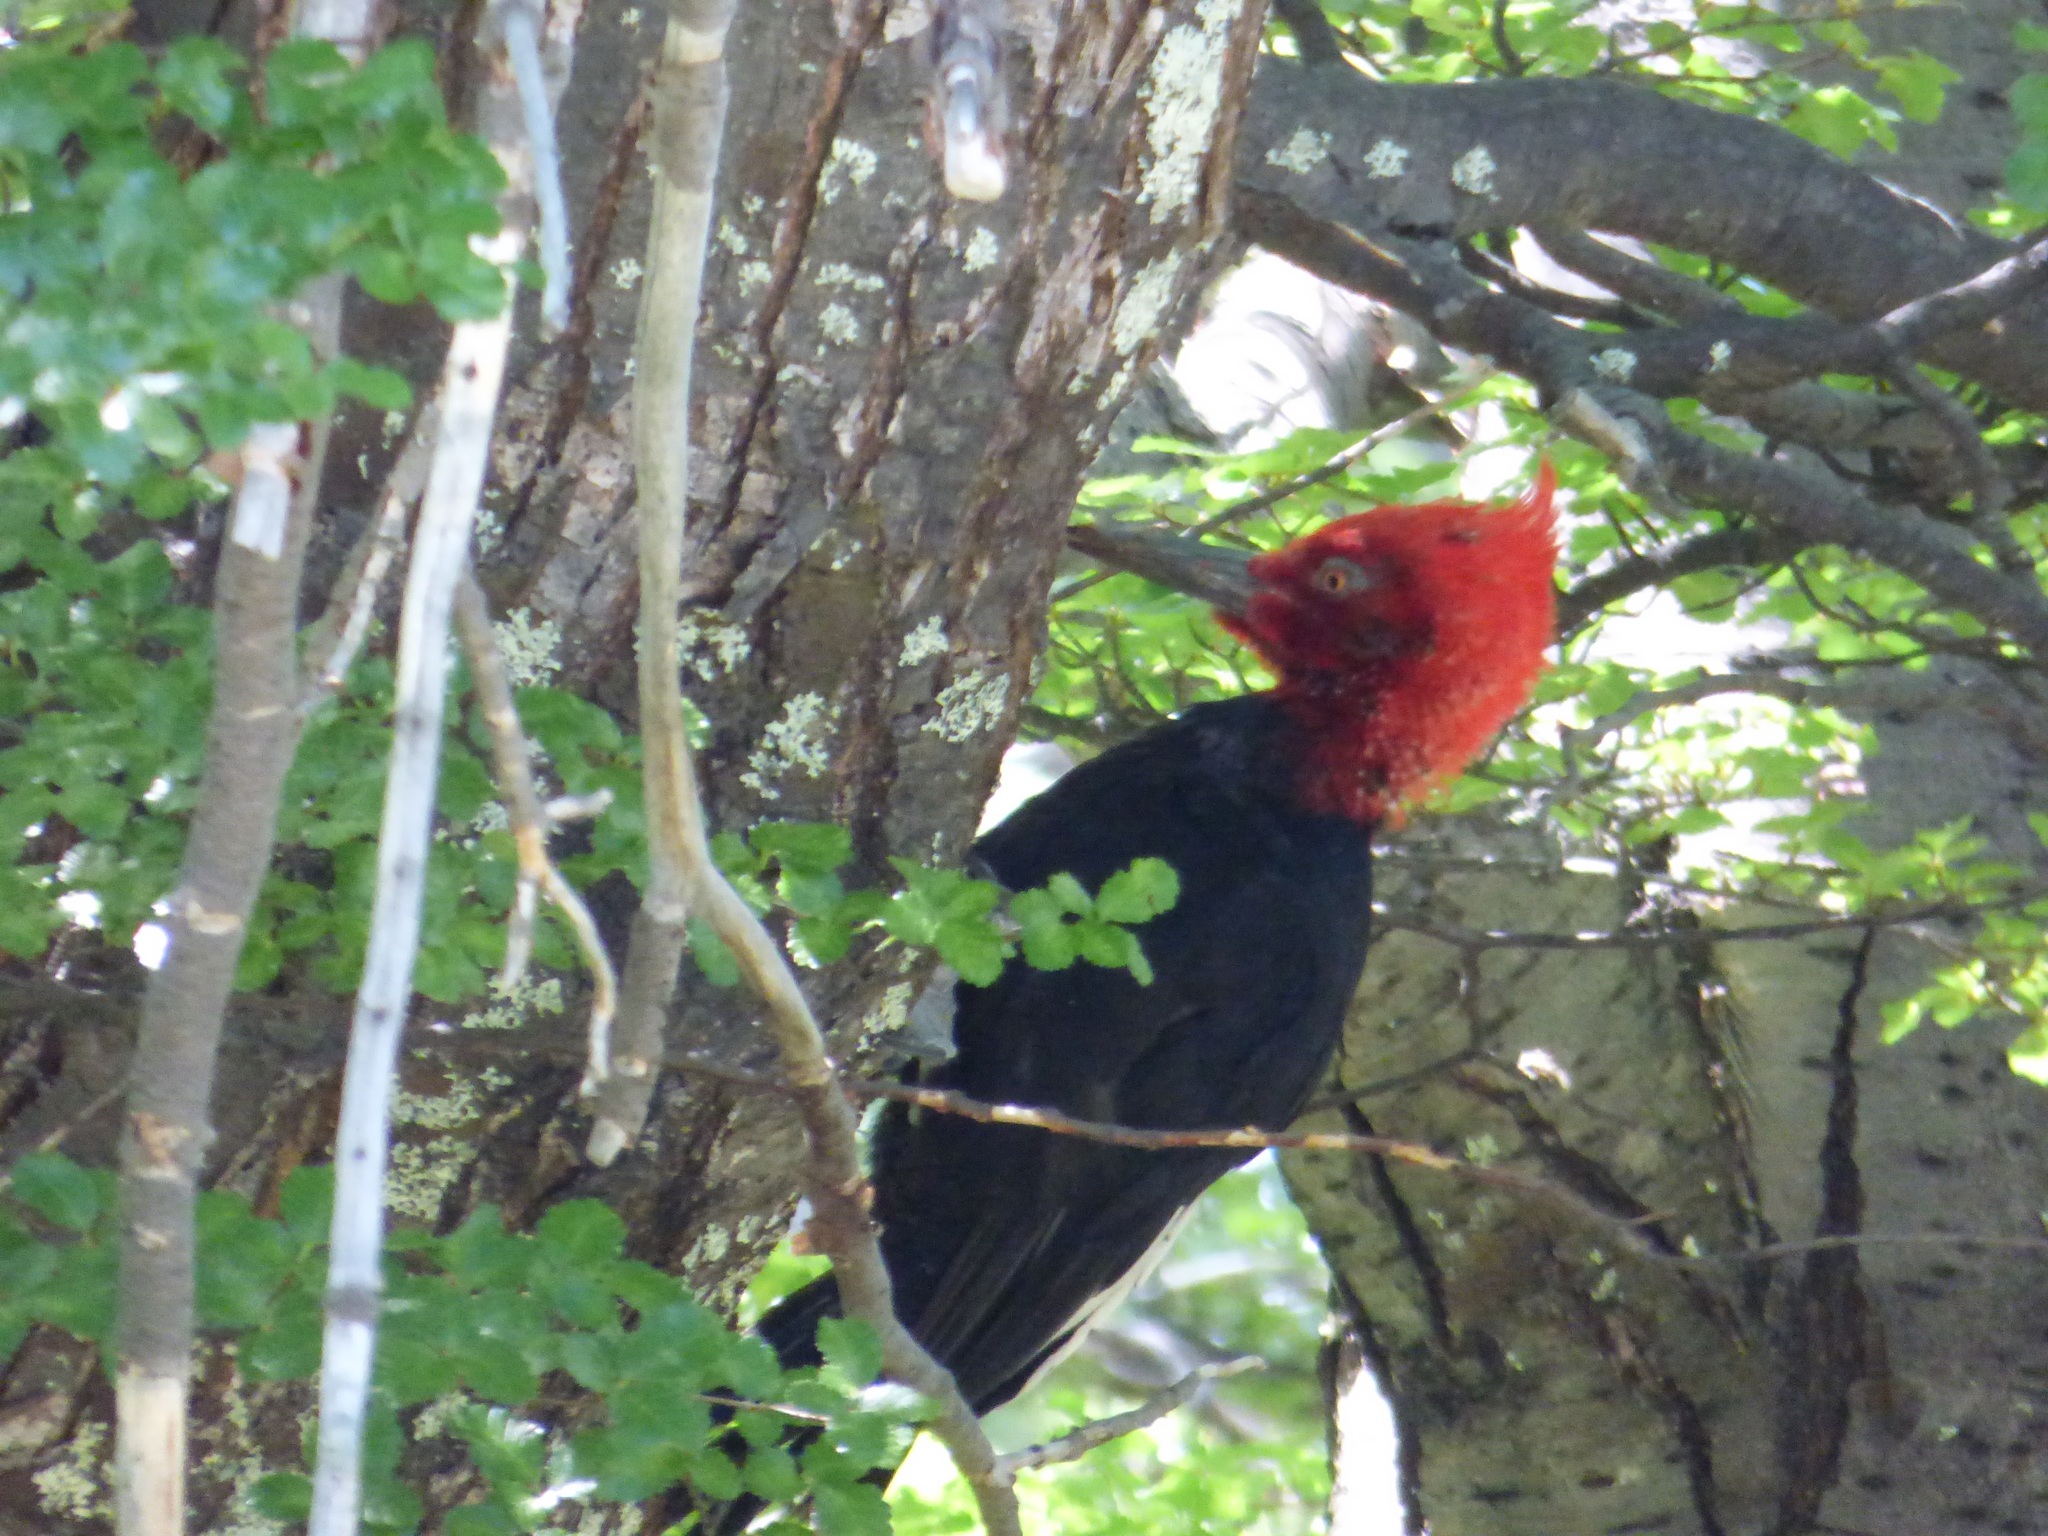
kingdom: Animalia
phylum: Chordata
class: Aves
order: Piciformes
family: Picidae
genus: Campephilus
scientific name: Campephilus magellanicus
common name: Magellanic woodpecker
